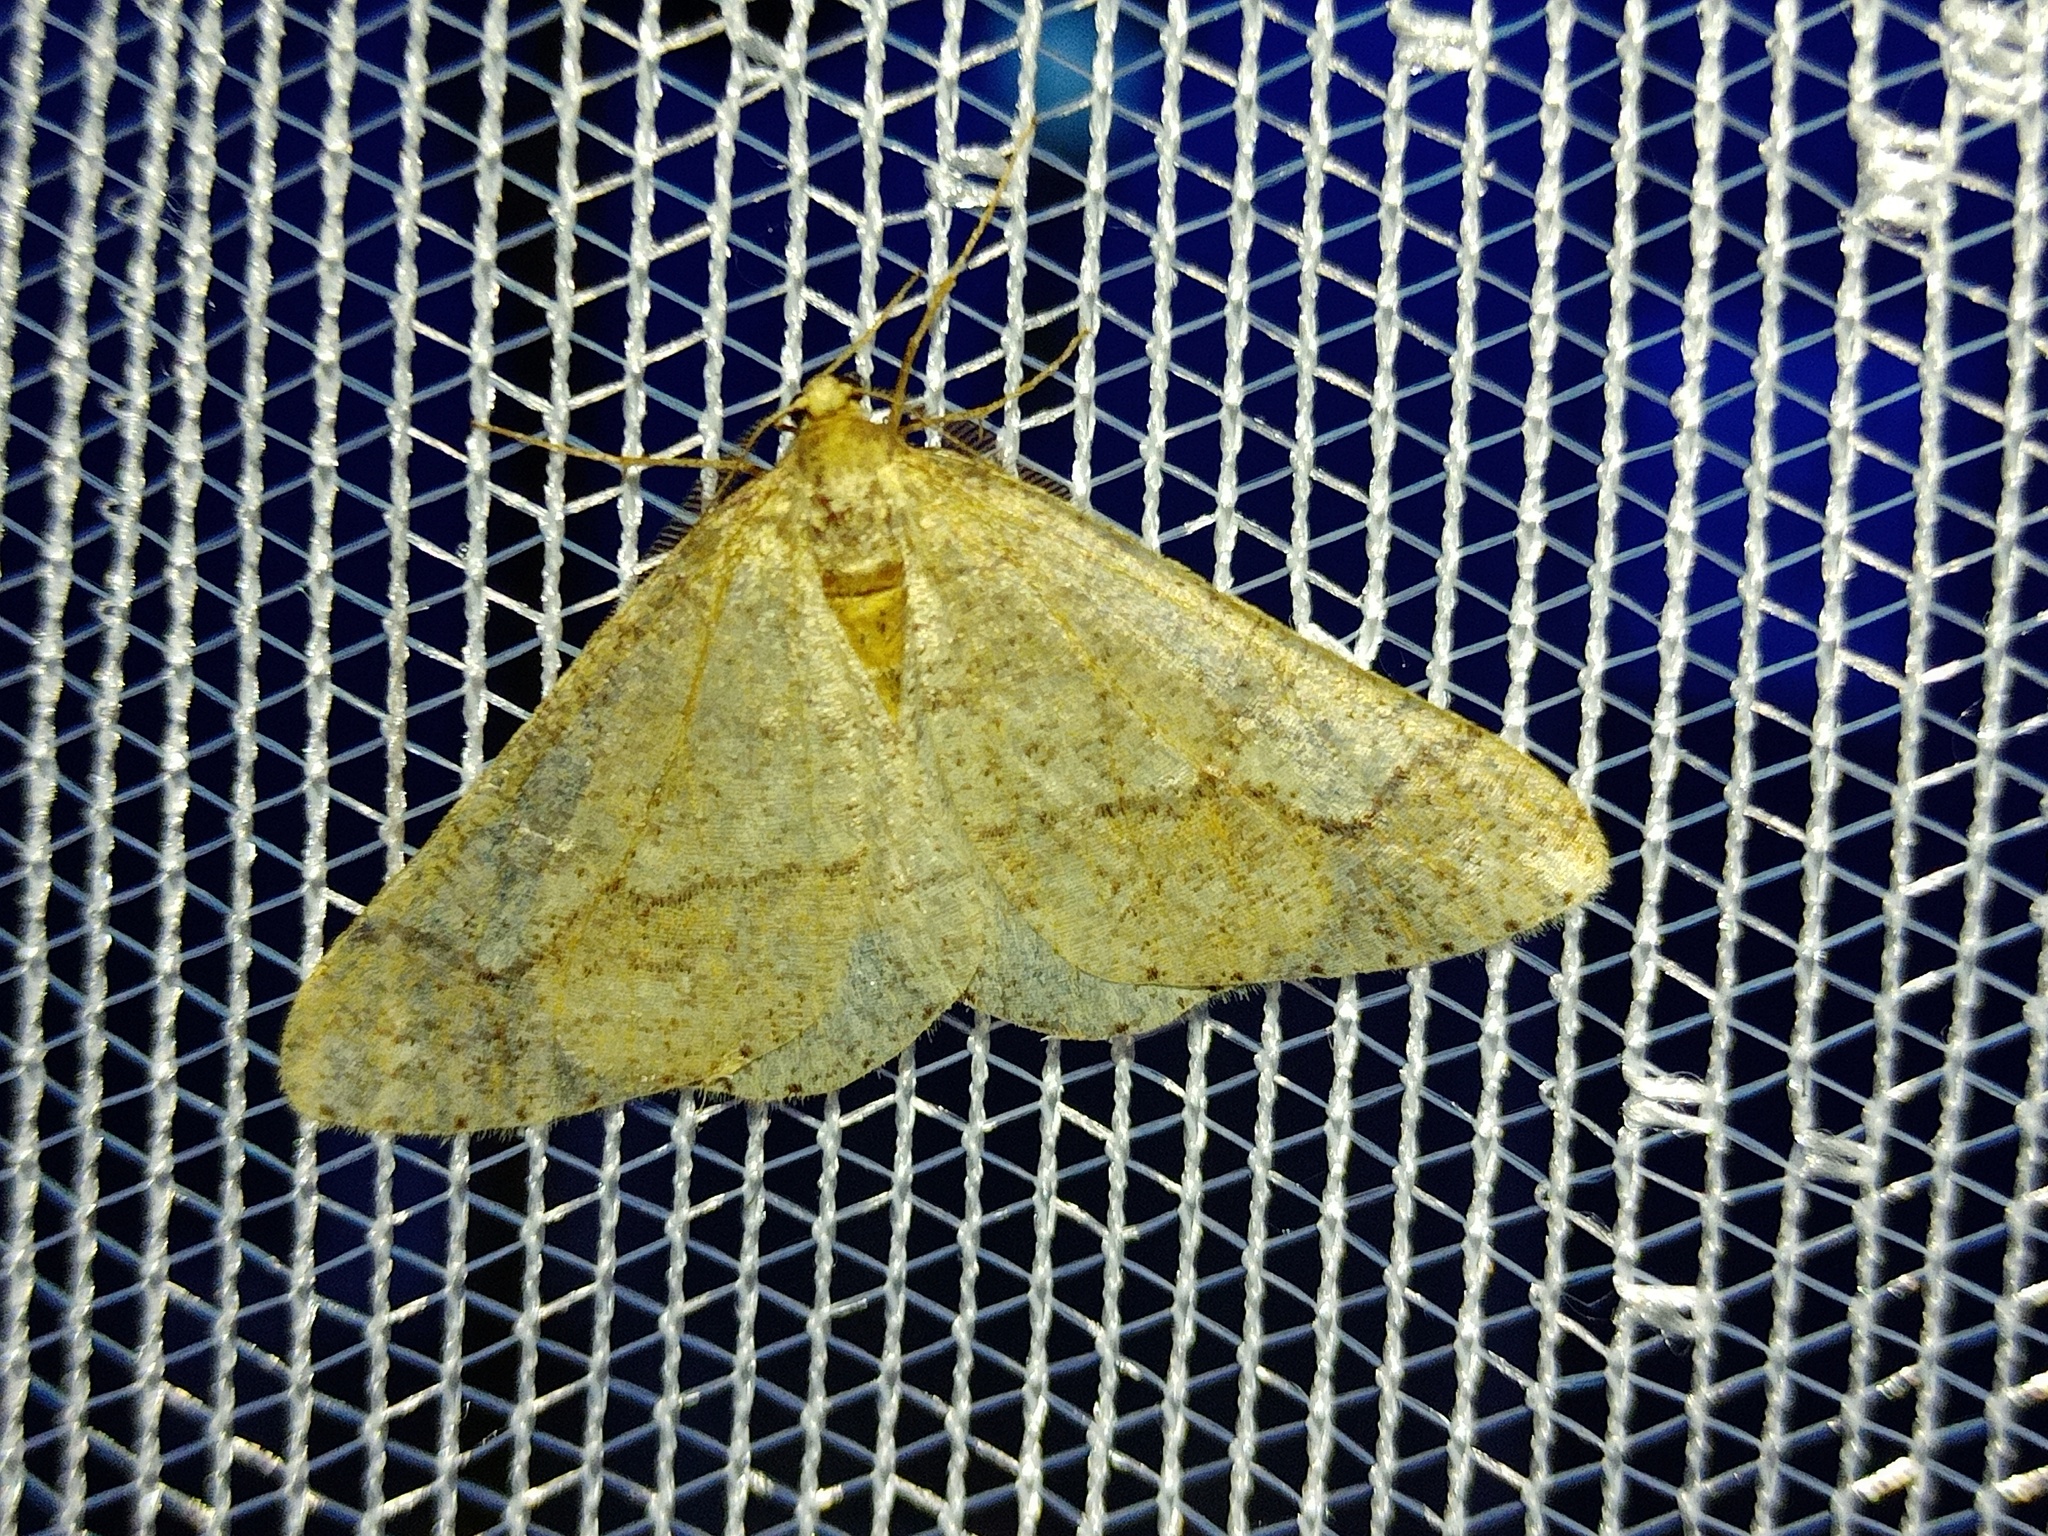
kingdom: Animalia
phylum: Arthropoda
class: Insecta
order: Lepidoptera
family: Geometridae
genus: Agriopis
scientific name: Agriopis marginaria
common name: Dotted border
